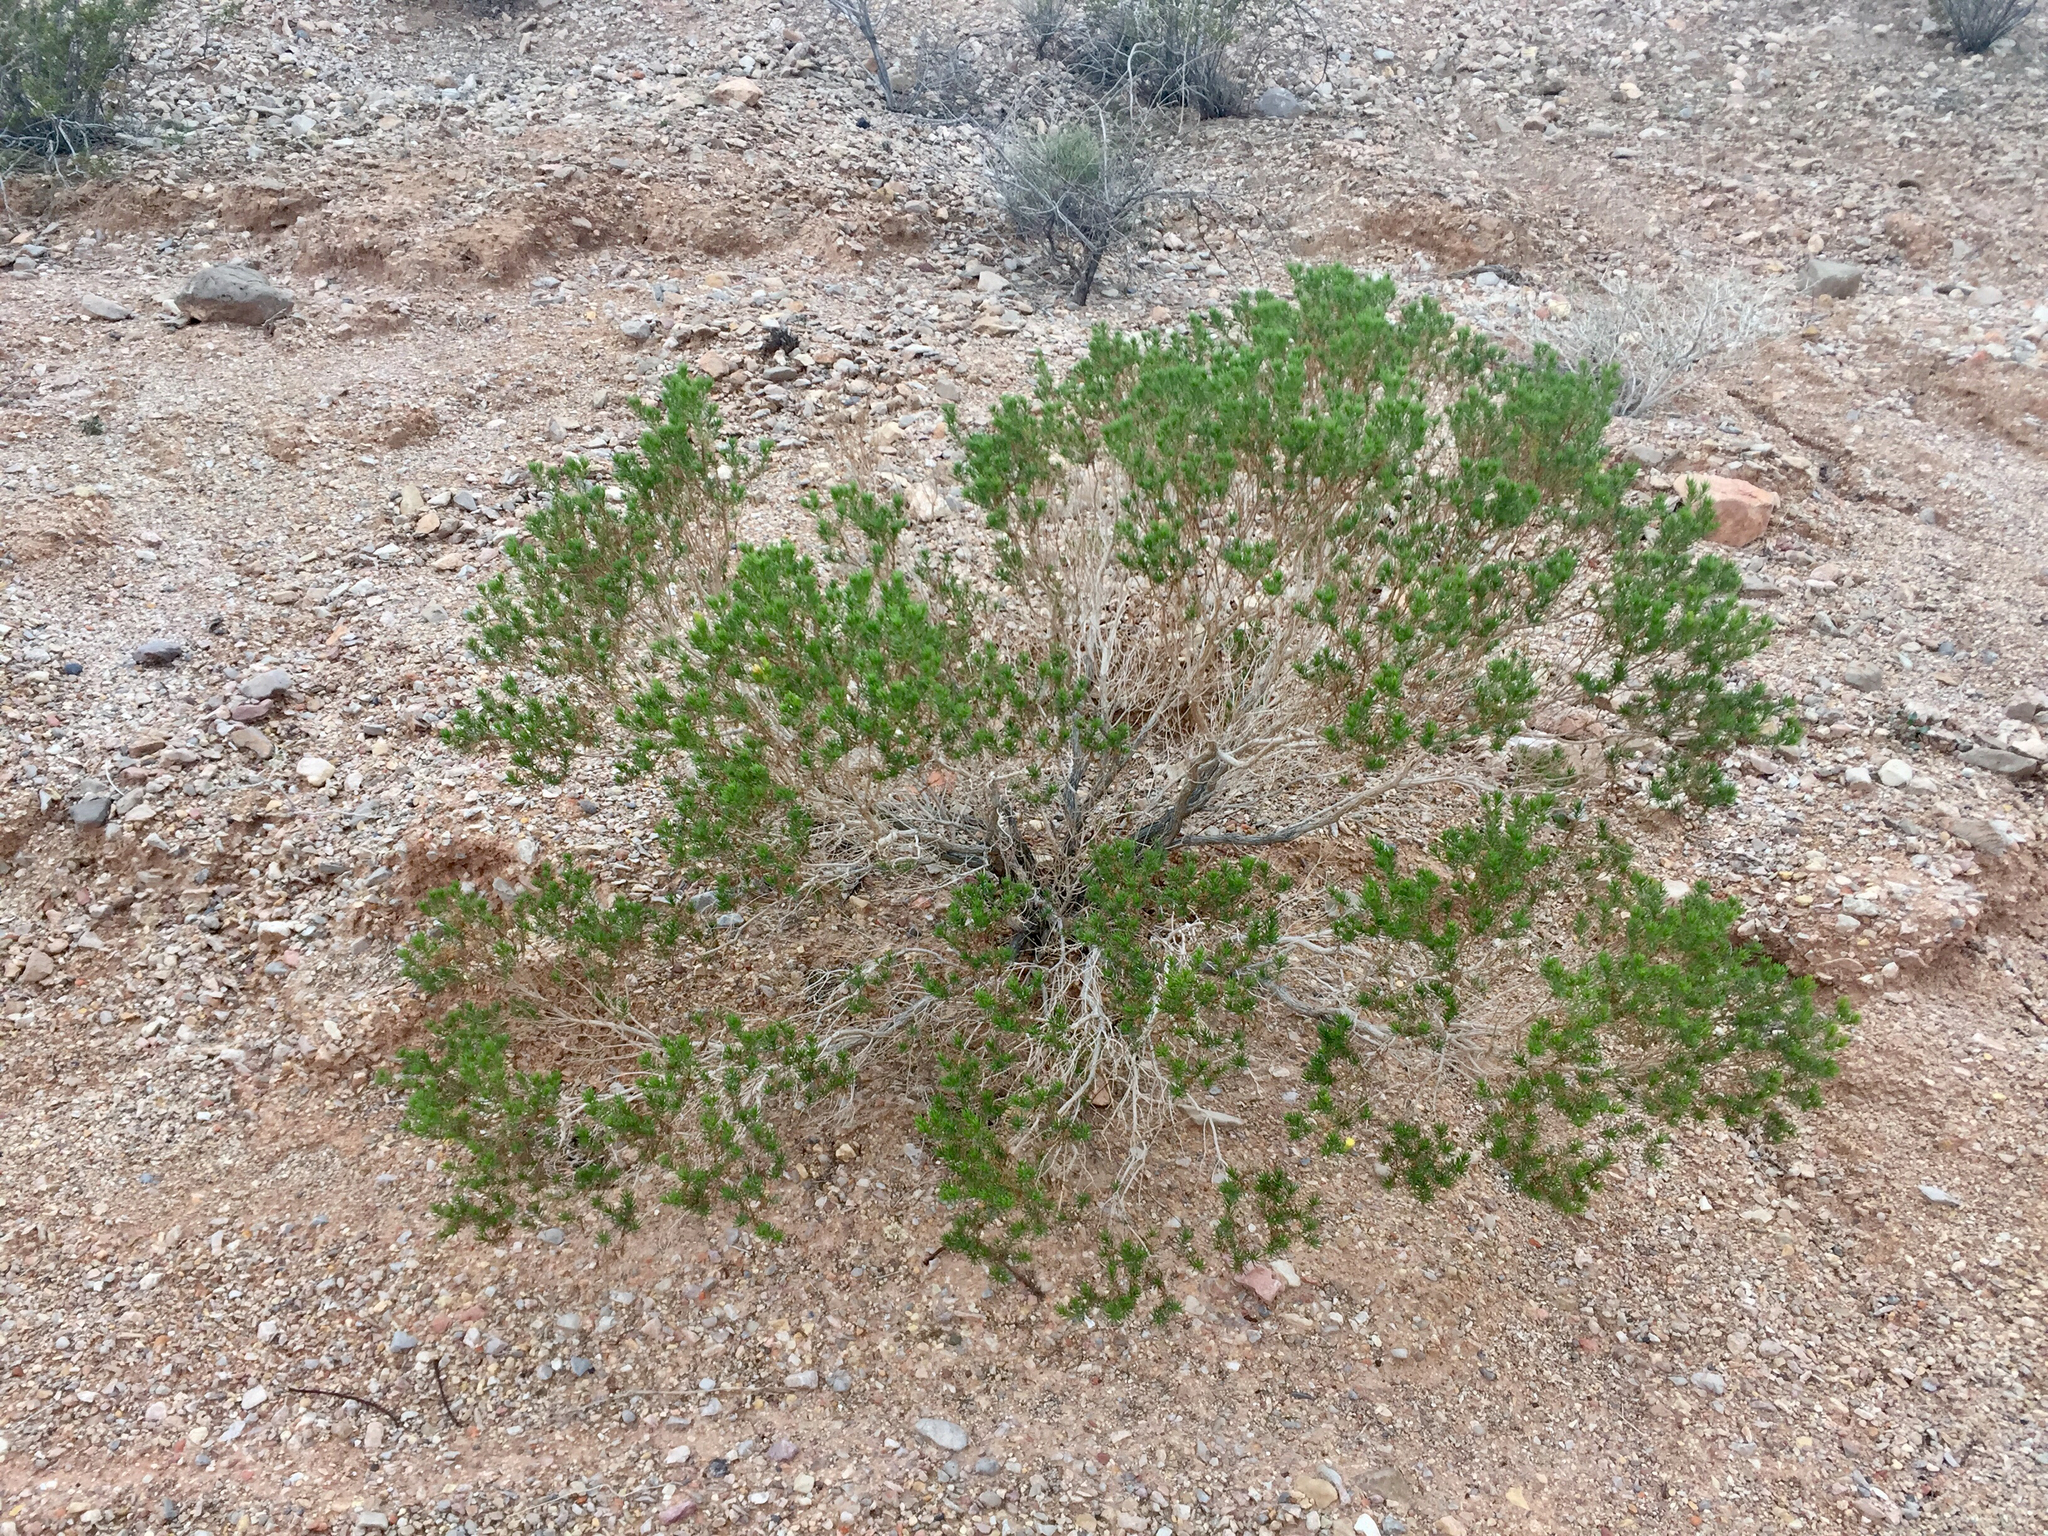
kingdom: Plantae
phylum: Tracheophyta
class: Magnoliopsida
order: Zygophyllales
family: Zygophyllaceae
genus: Larrea
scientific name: Larrea tridentata
